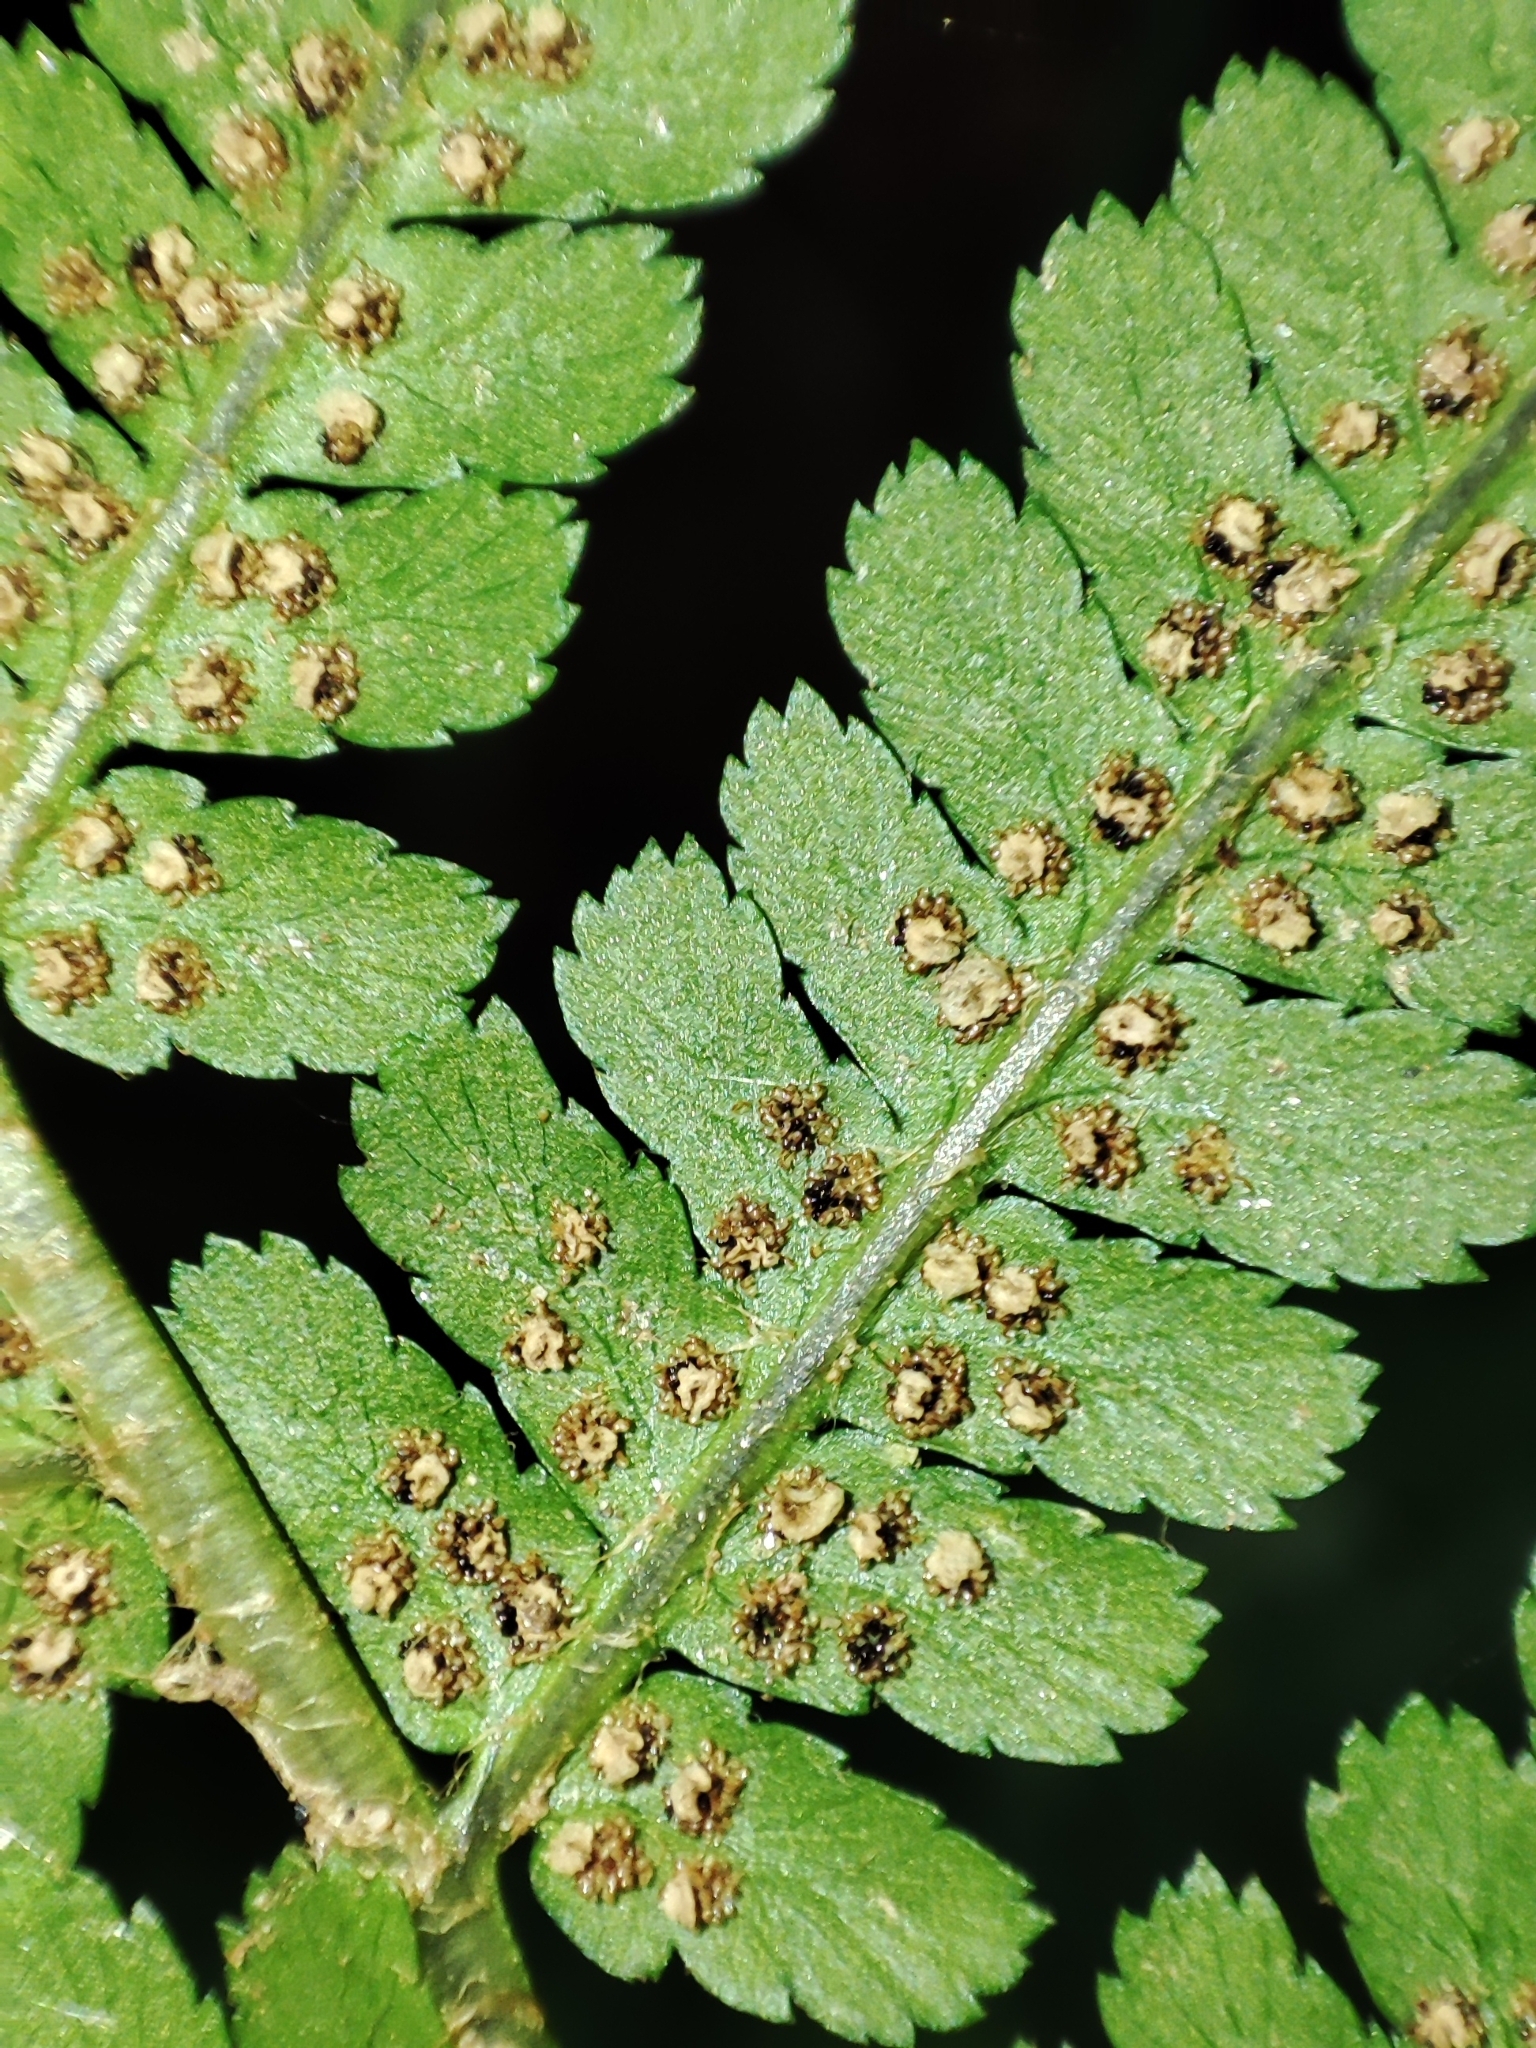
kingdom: Plantae
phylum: Tracheophyta
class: Polypodiopsida
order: Polypodiales
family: Dryopteridaceae
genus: Dryopteris
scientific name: Dryopteris filix-mas
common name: Male fern
